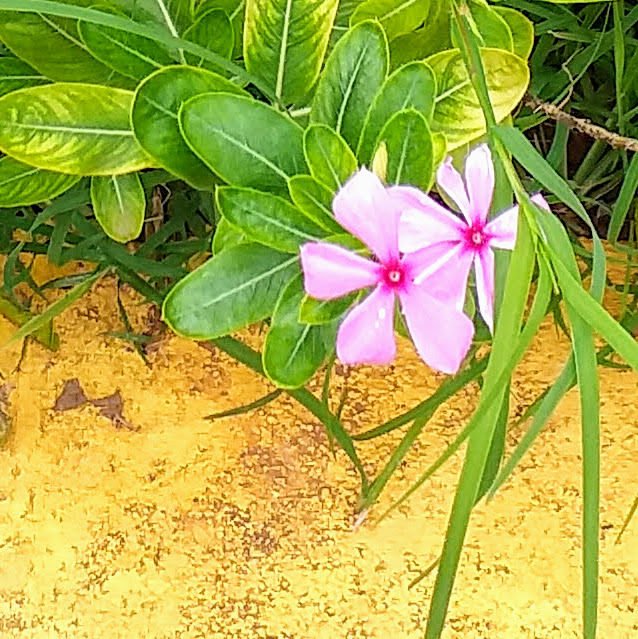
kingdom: Plantae
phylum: Tracheophyta
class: Magnoliopsida
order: Gentianales
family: Apocynaceae
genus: Catharanthus
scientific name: Catharanthus roseus
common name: Madagascar periwinkle
